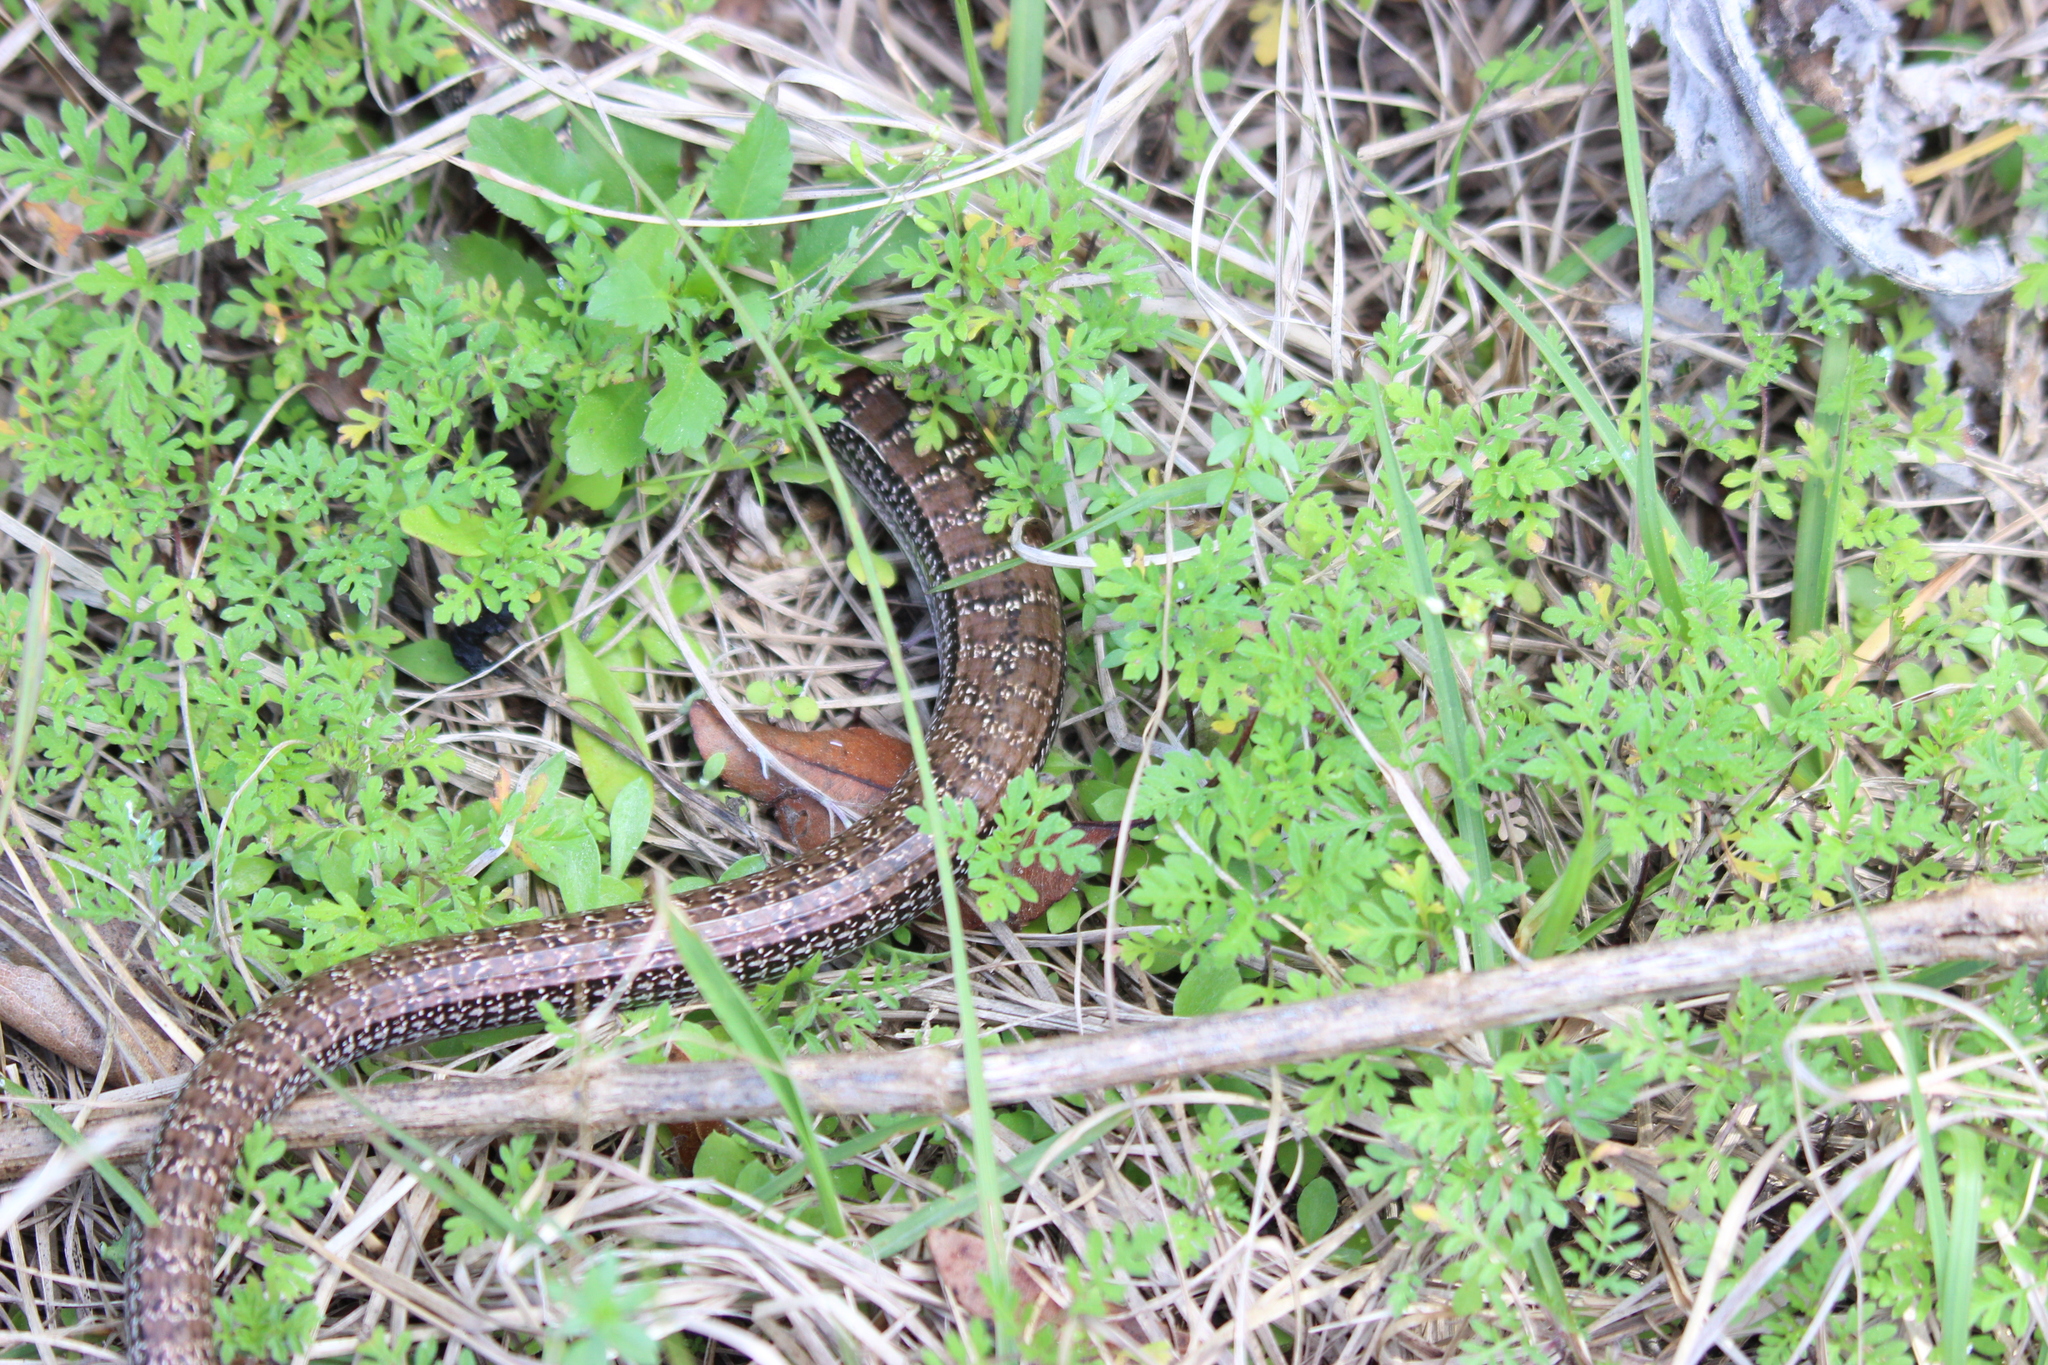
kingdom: Animalia
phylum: Chordata
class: Squamata
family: Anguidae
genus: Ophisaurus
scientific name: Ophisaurus attenuatus
